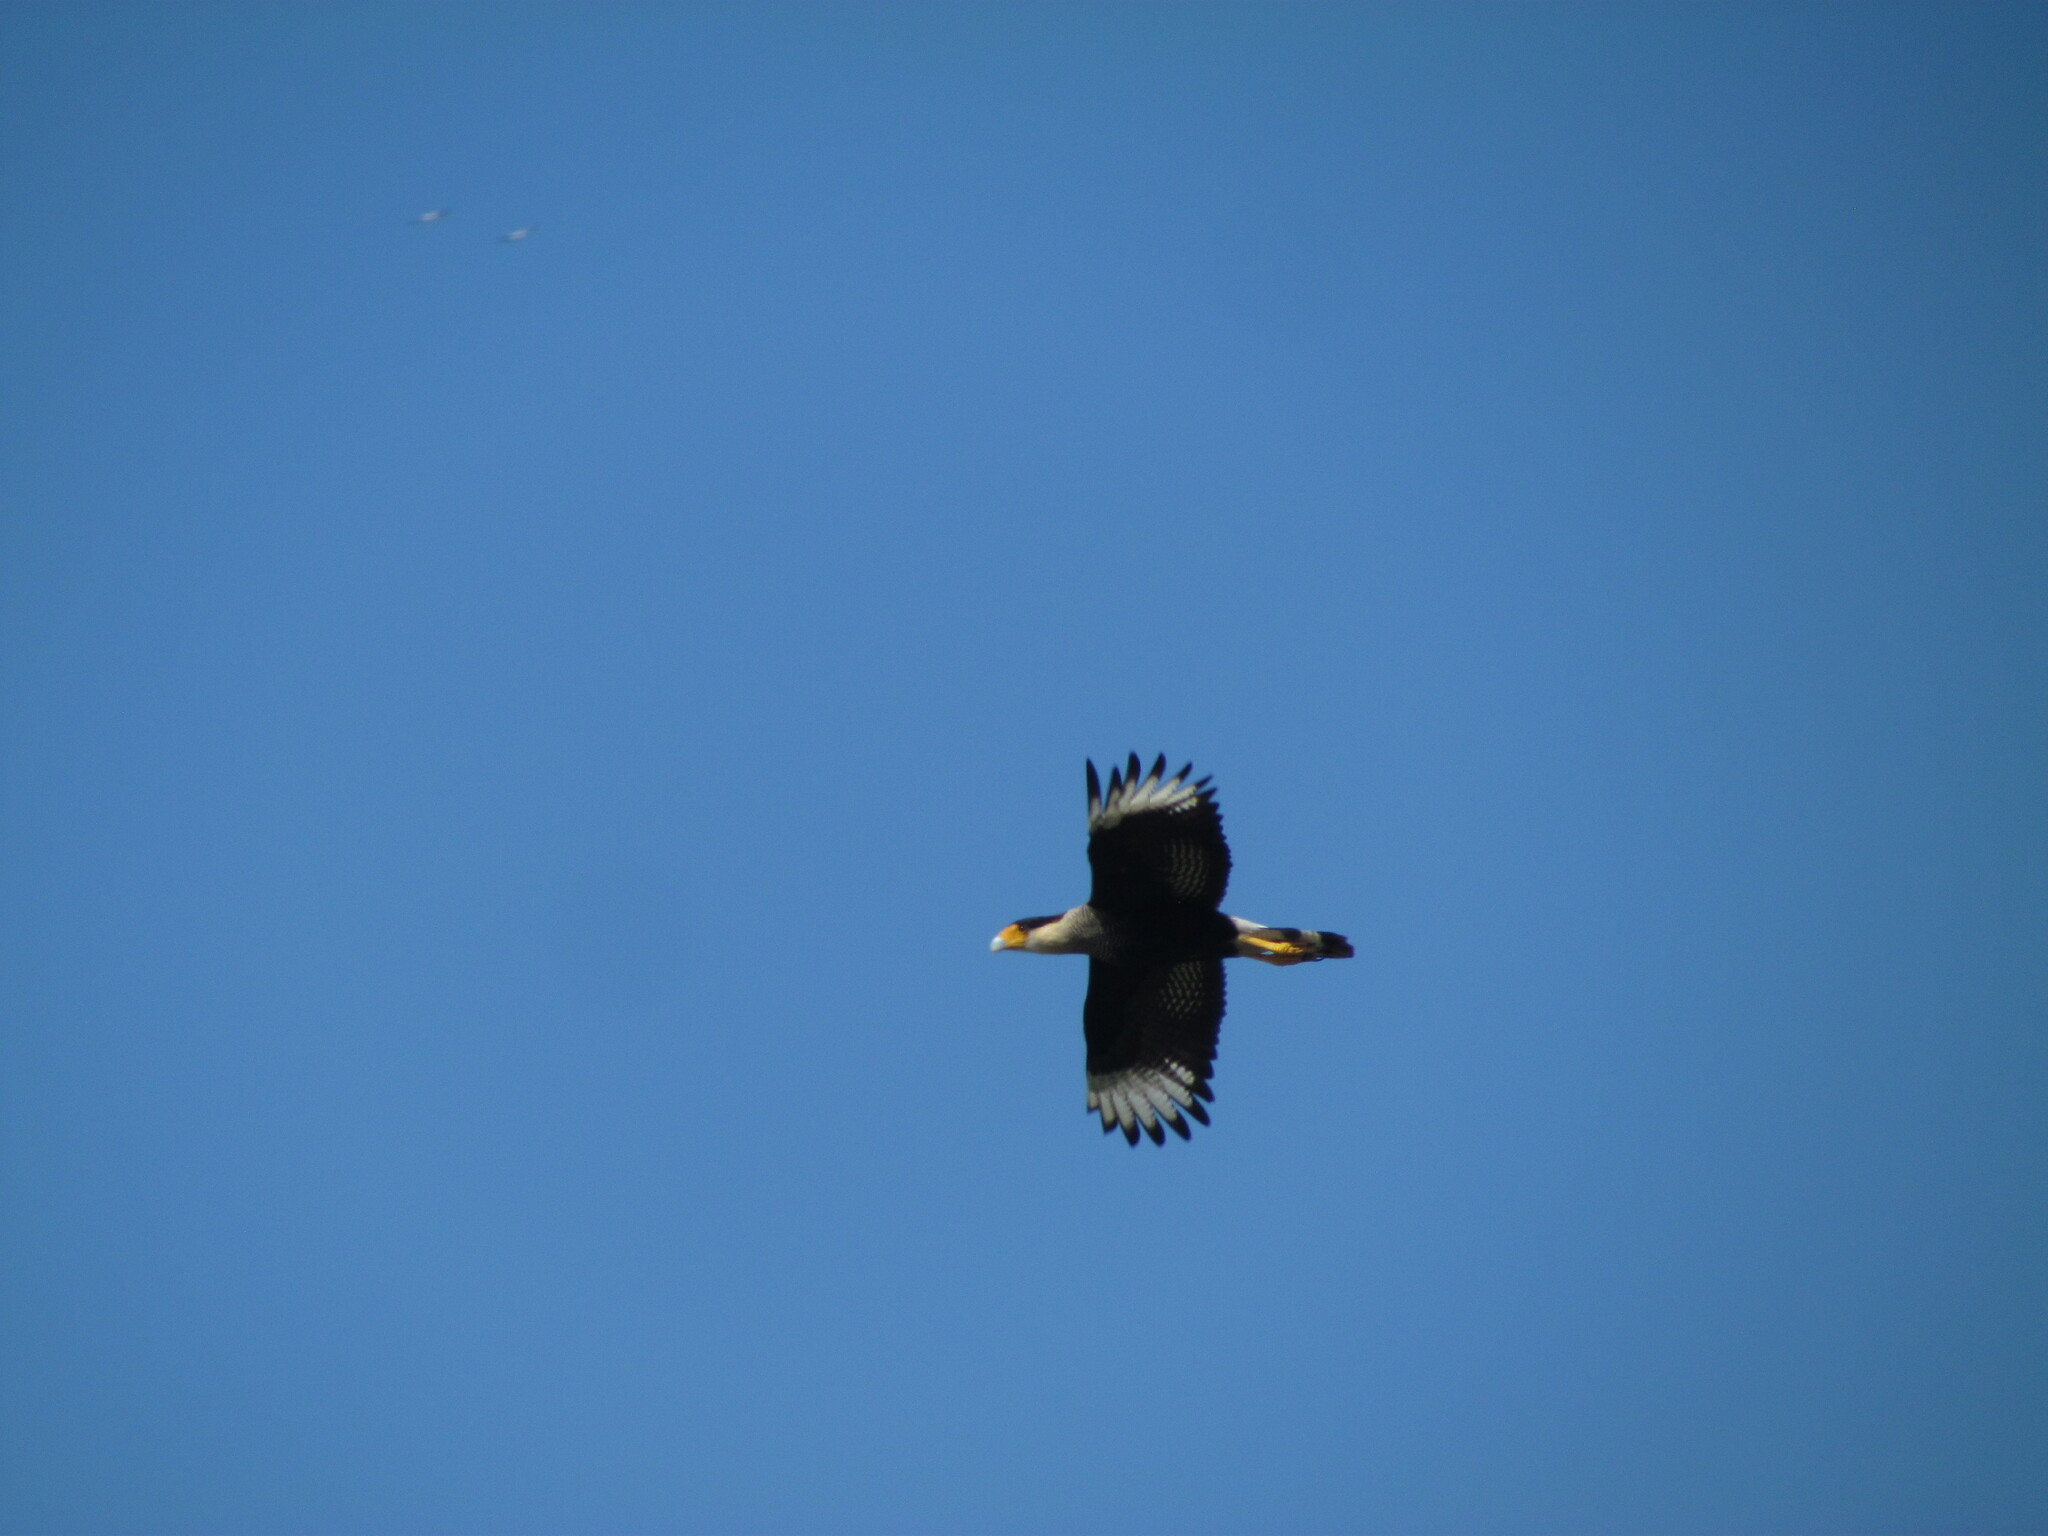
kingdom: Animalia
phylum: Chordata
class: Aves
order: Falconiformes
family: Falconidae
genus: Caracara
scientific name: Caracara plancus
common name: Southern caracara
